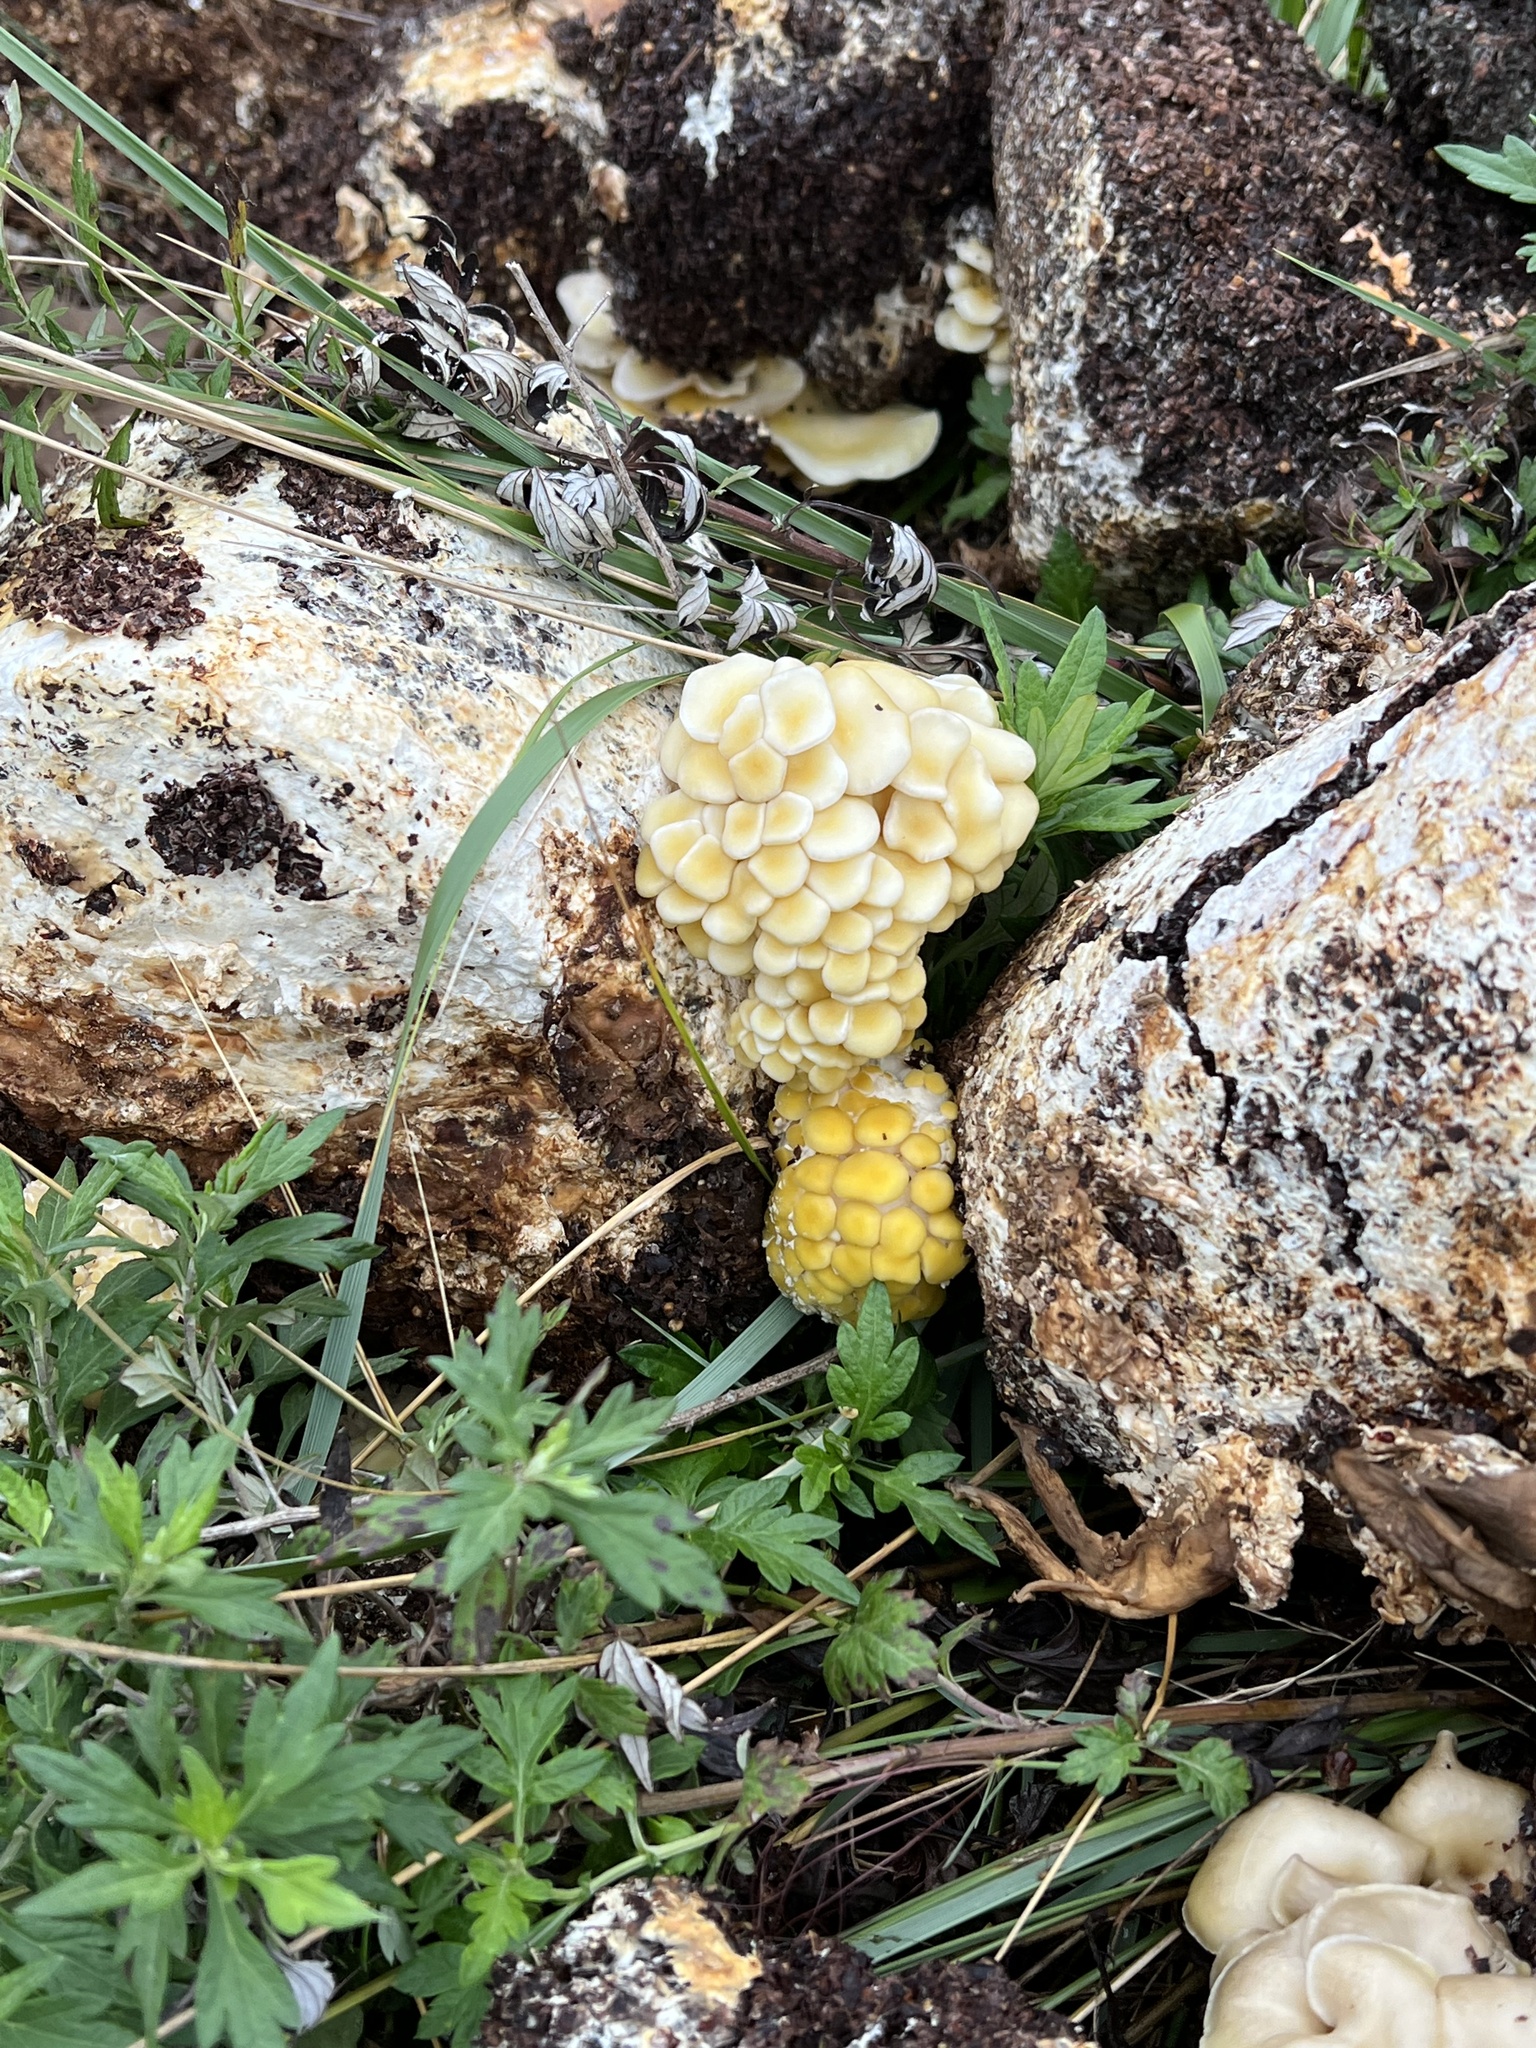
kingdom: Fungi
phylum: Basidiomycota
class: Agaricomycetes
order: Agaricales
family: Pleurotaceae
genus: Pleurotus
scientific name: Pleurotus citrinopileatus
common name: Golden oyster mushroom
